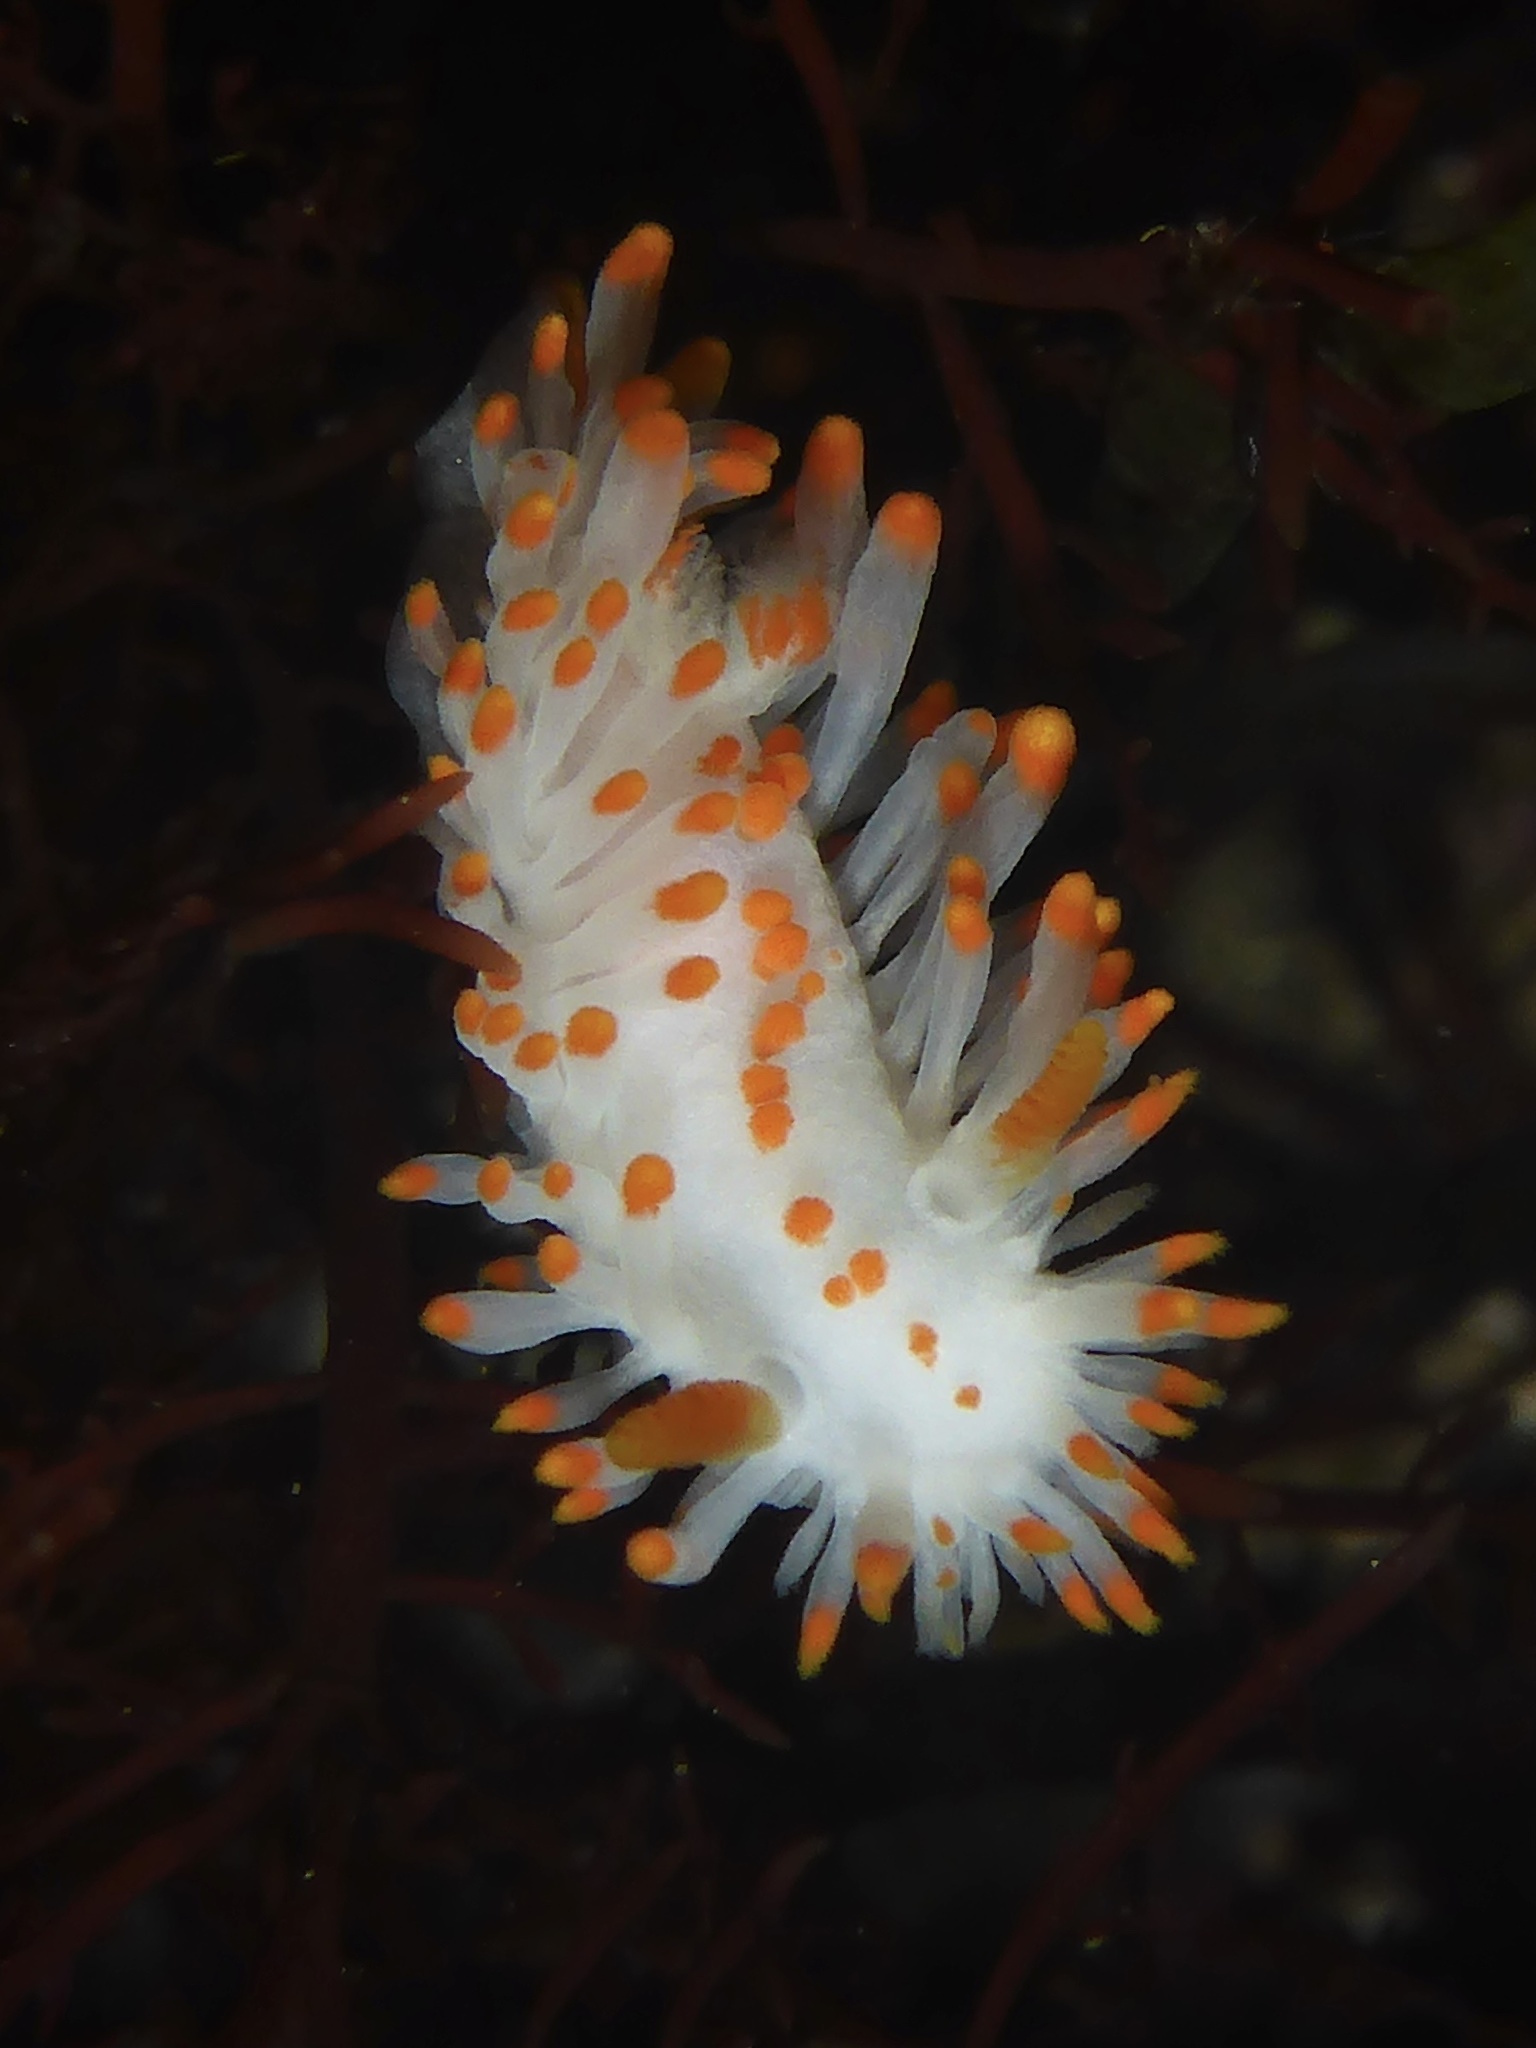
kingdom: Animalia
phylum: Mollusca
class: Gastropoda
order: Nudibranchia
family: Polyceridae
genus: Limacia
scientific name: Limacia mcdonaldi
